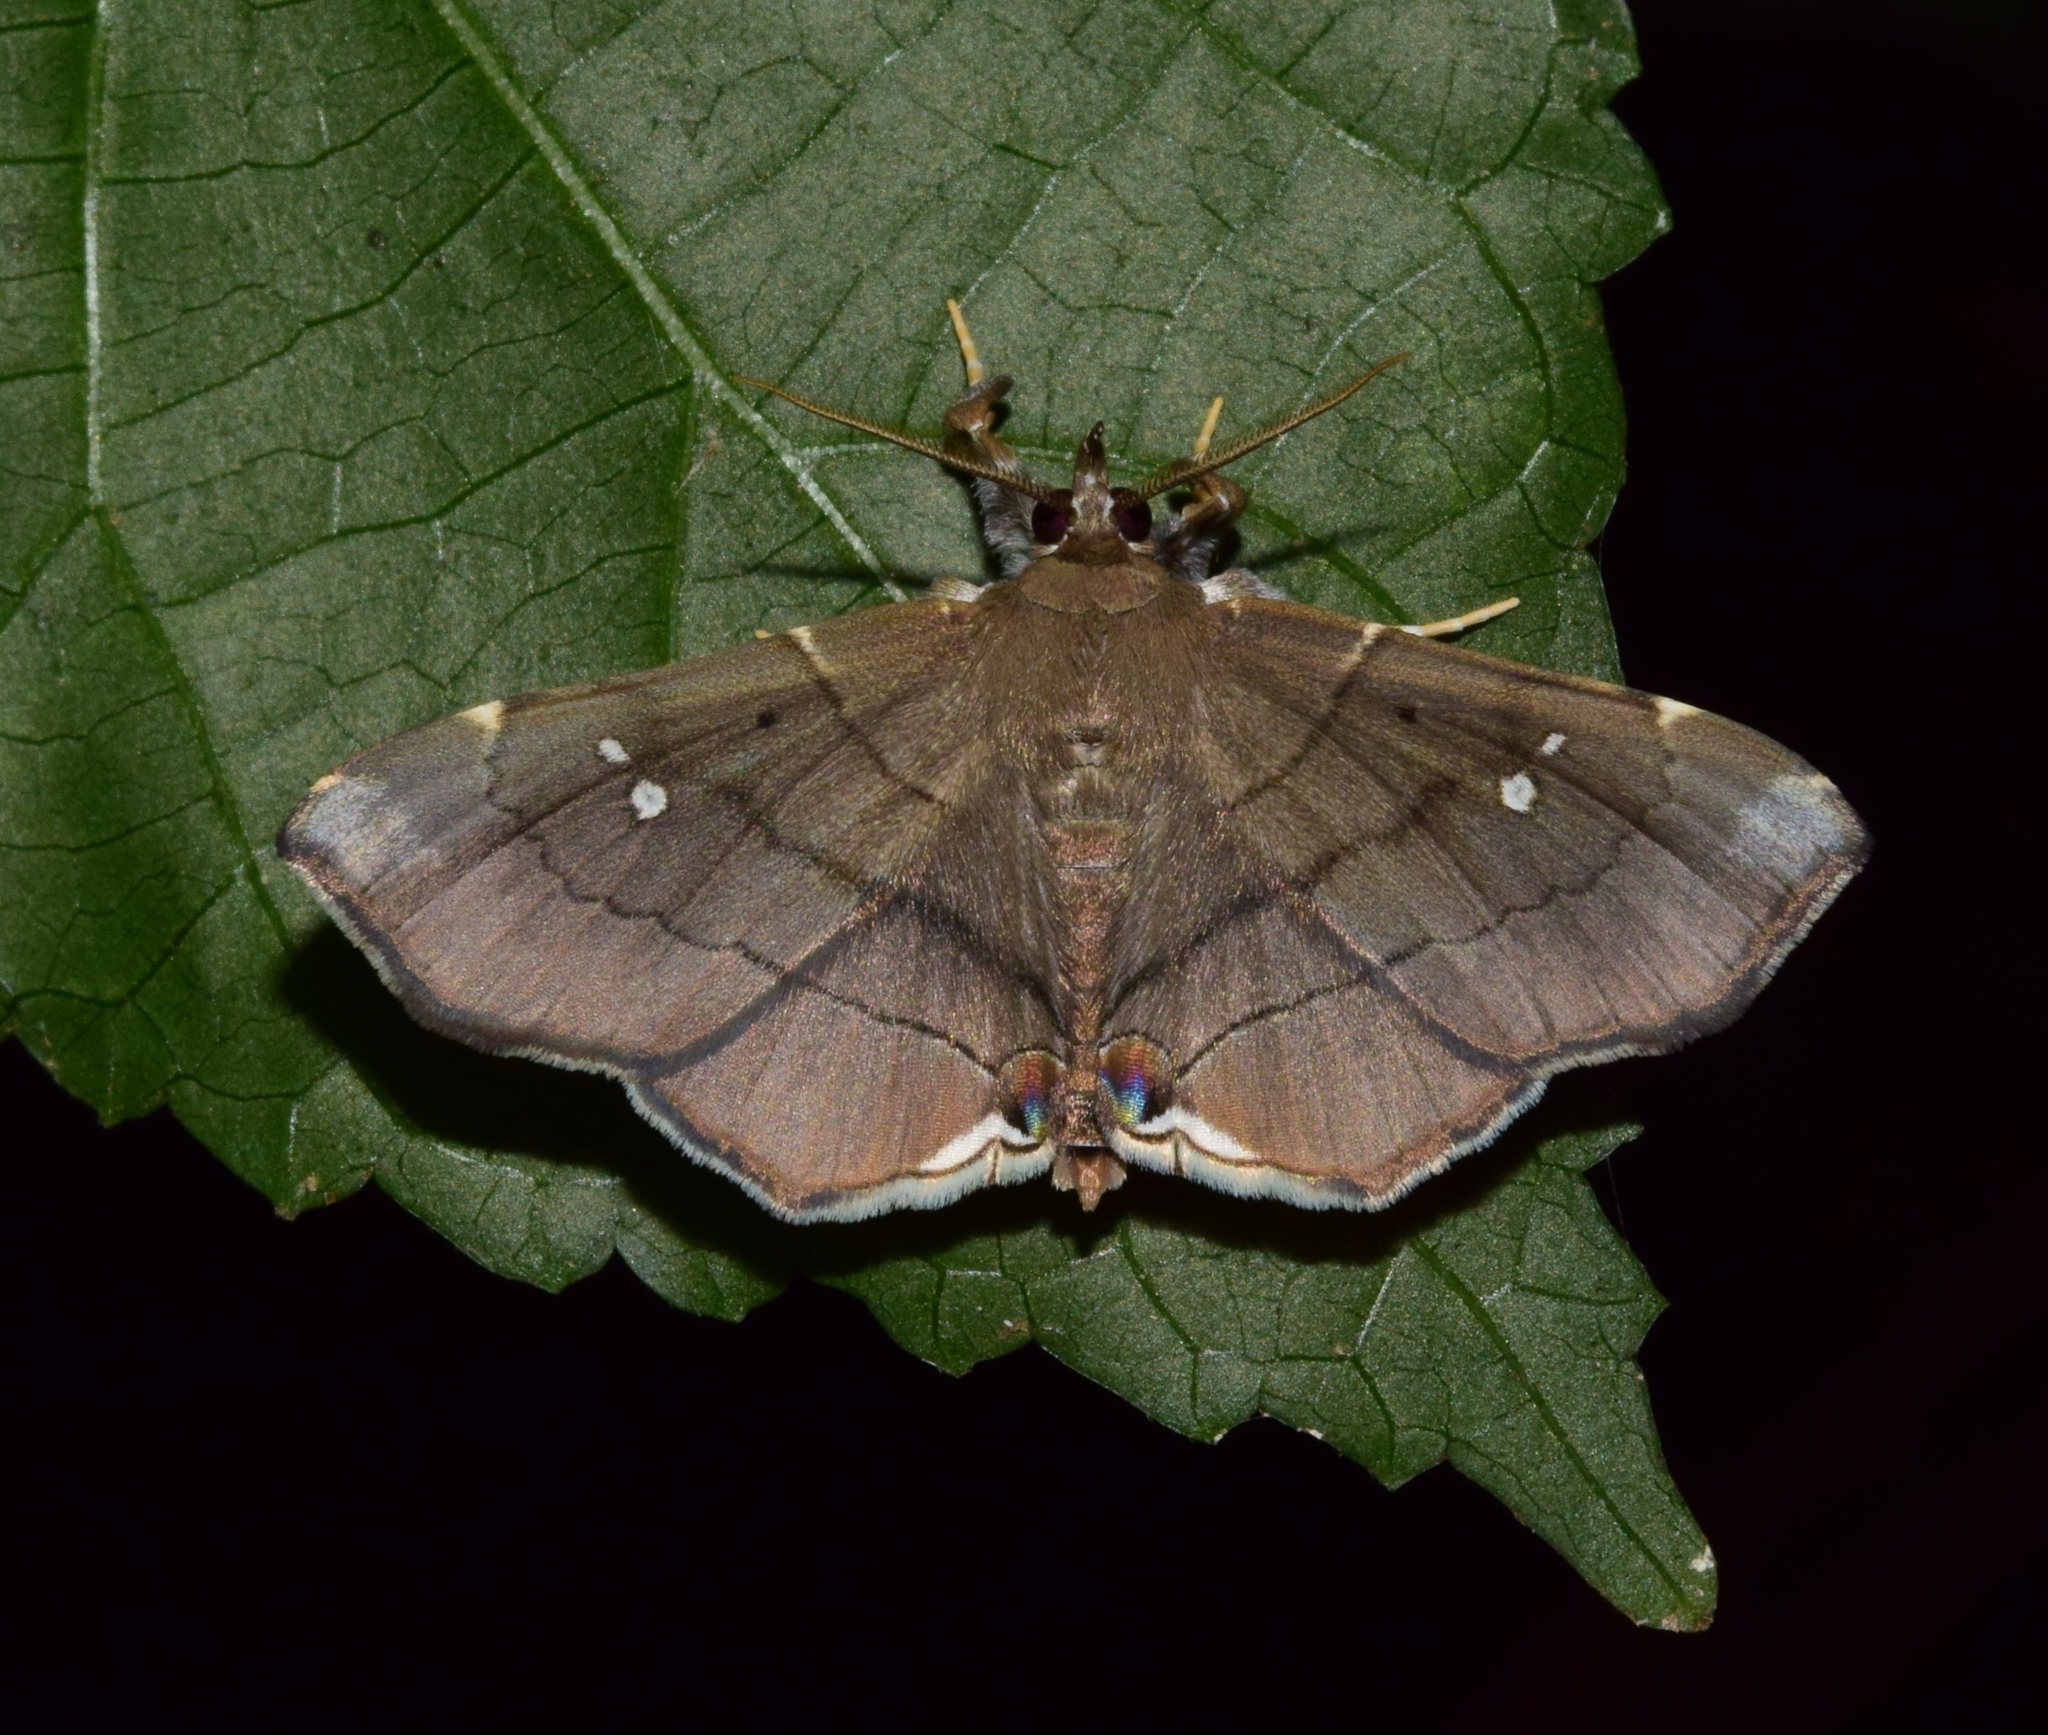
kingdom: Animalia
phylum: Arthropoda
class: Insecta
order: Lepidoptera
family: Erebidae
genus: Gracilodes
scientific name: Gracilodes nysa
